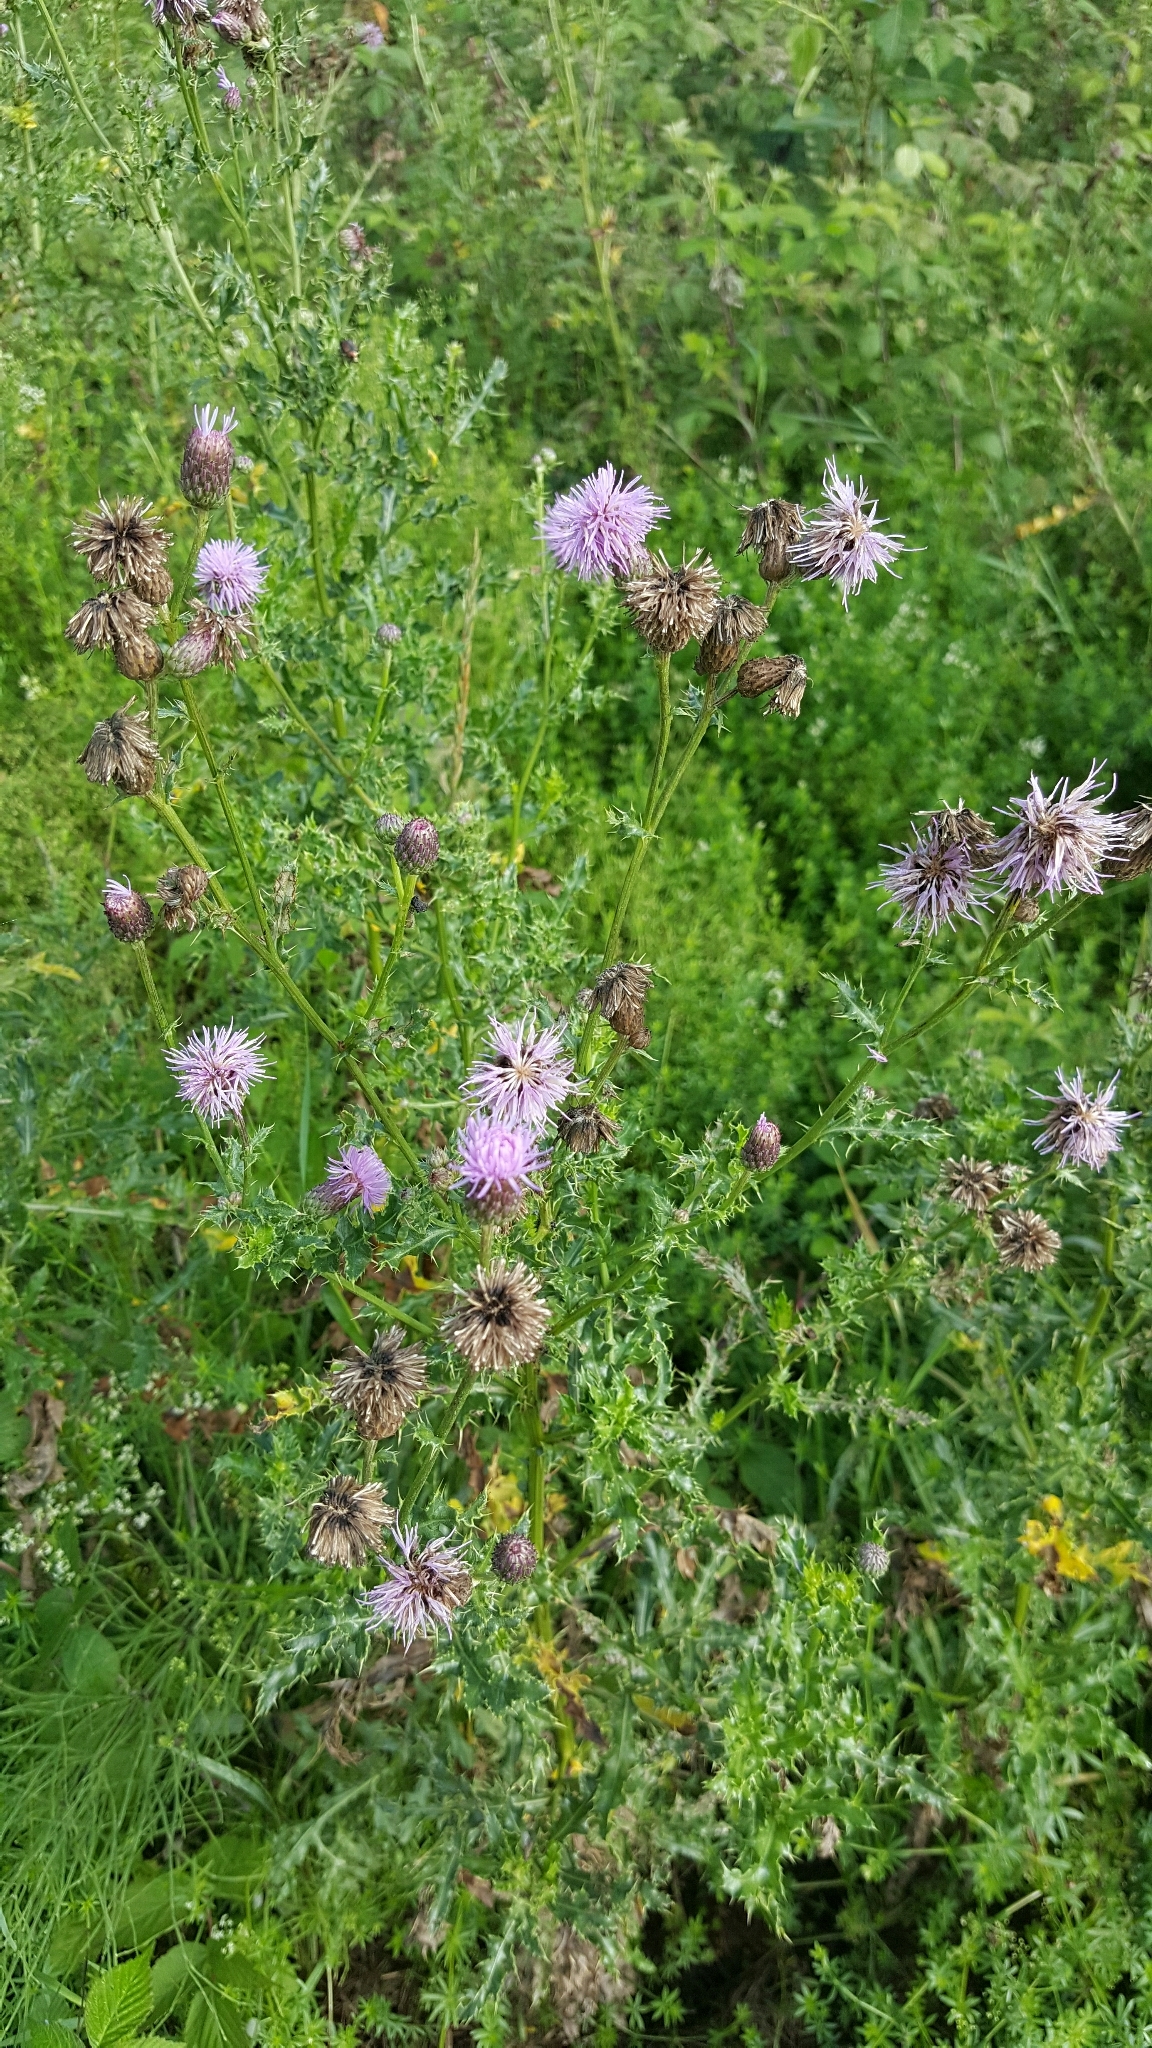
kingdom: Plantae
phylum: Tracheophyta
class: Magnoliopsida
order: Asterales
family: Asteraceae
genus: Cirsium
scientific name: Cirsium arvense
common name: Creeping thistle
